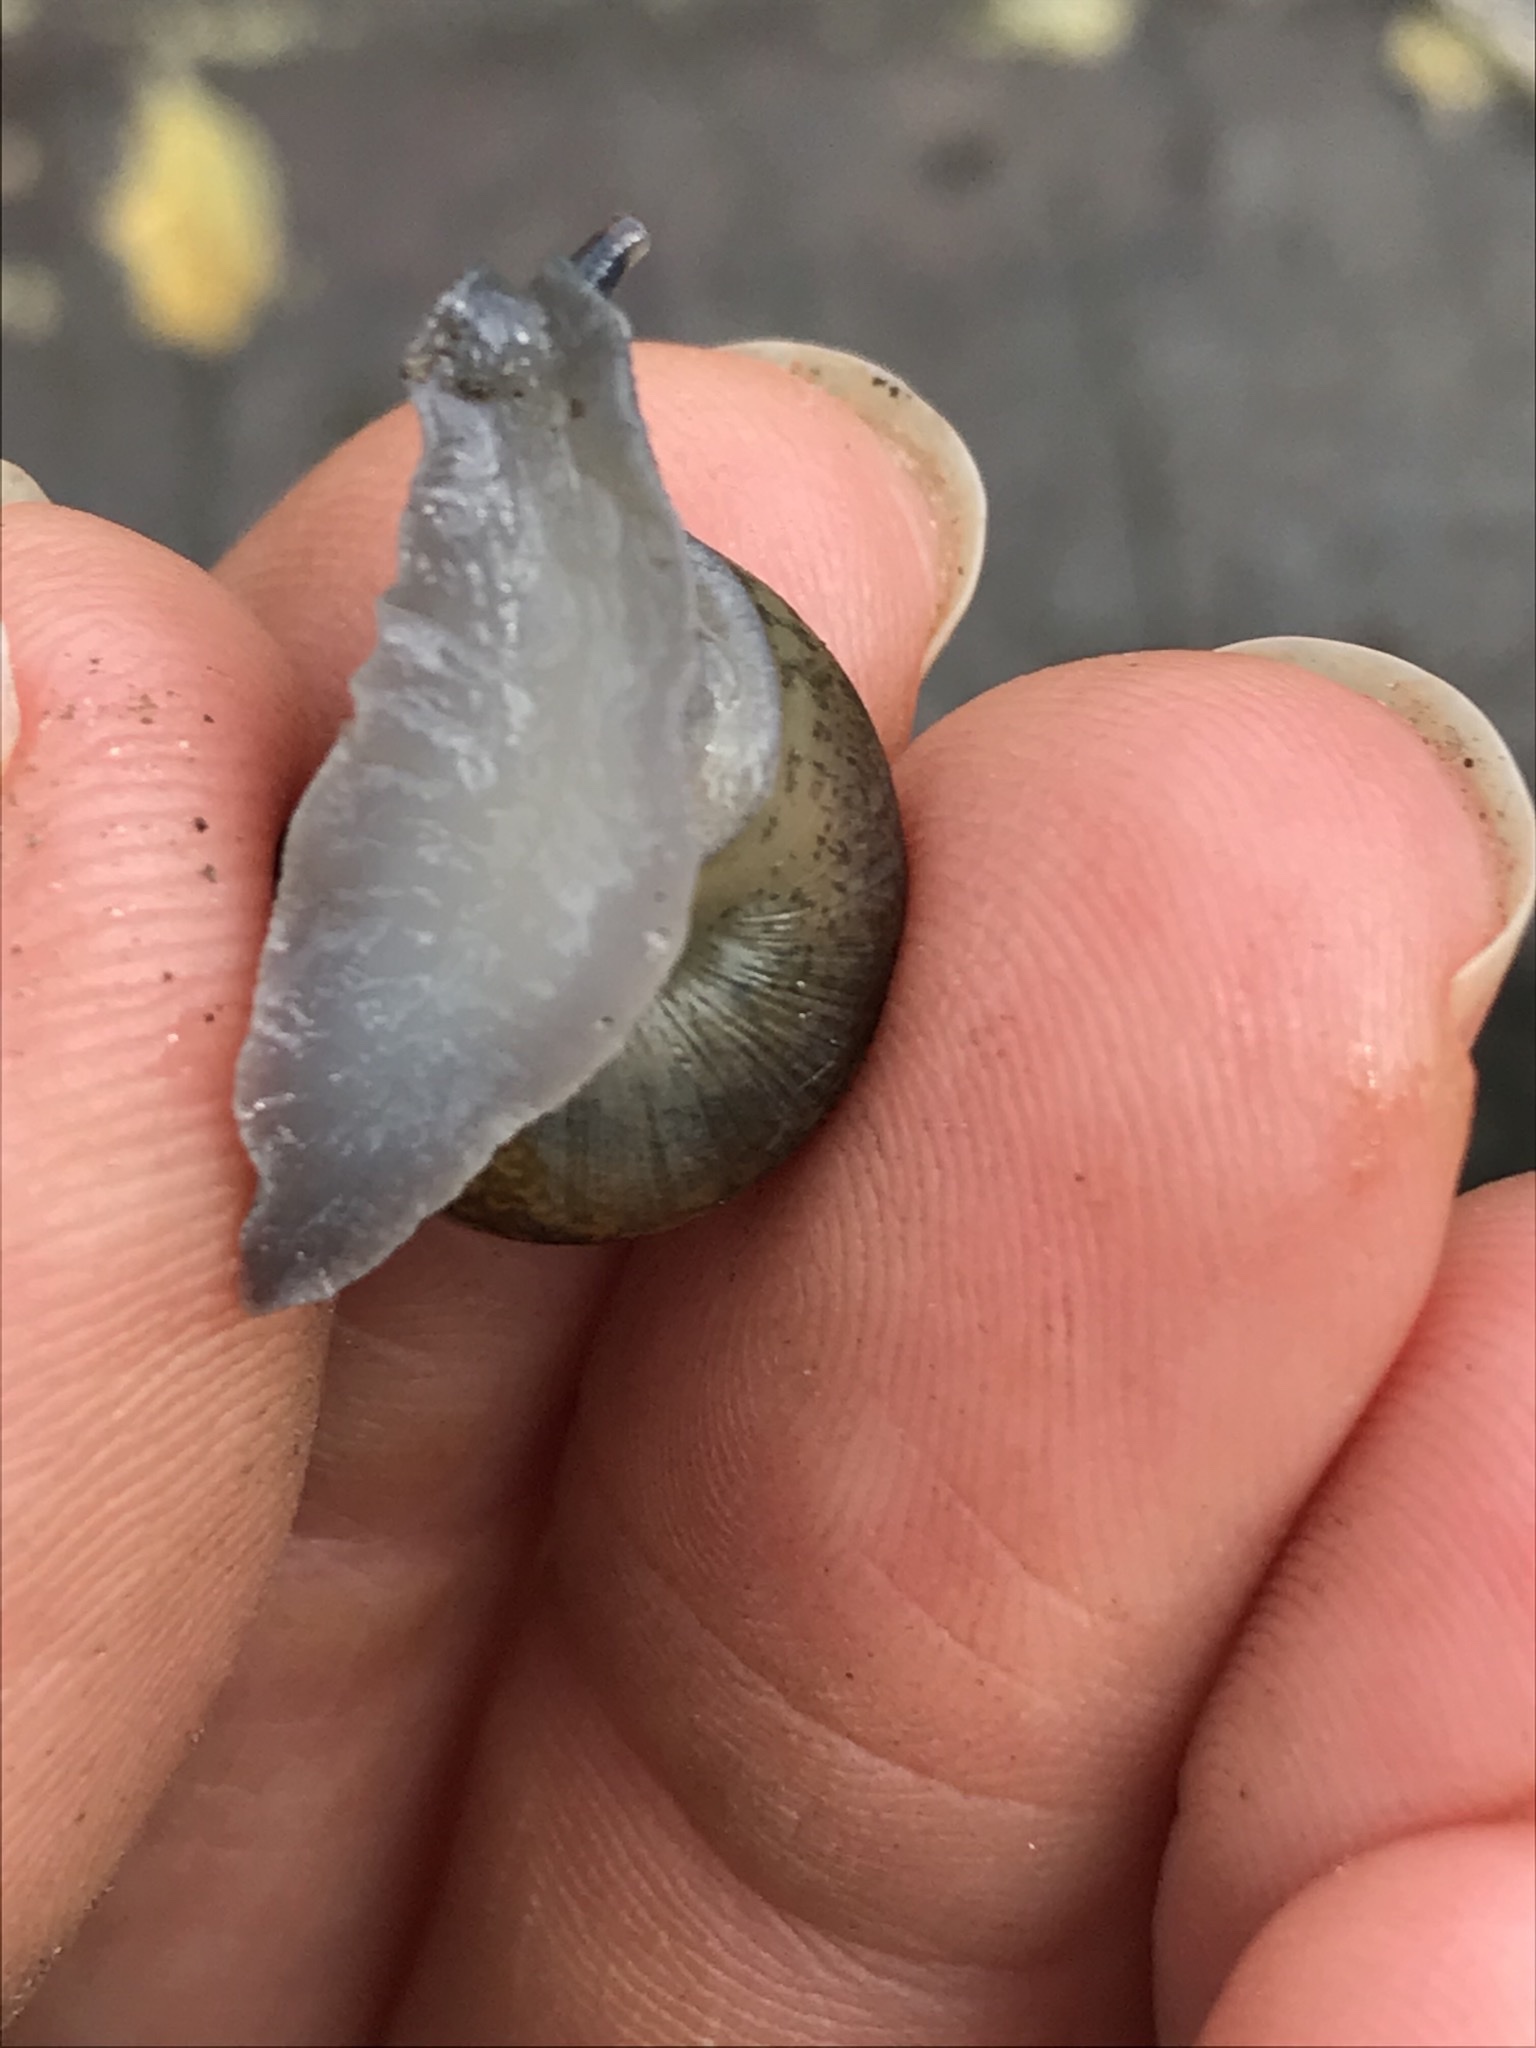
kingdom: Animalia
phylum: Mollusca
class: Gastropoda
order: Stylommatophora
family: Xanthonychidae
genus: Helminthoglypta
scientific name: Helminthoglypta
